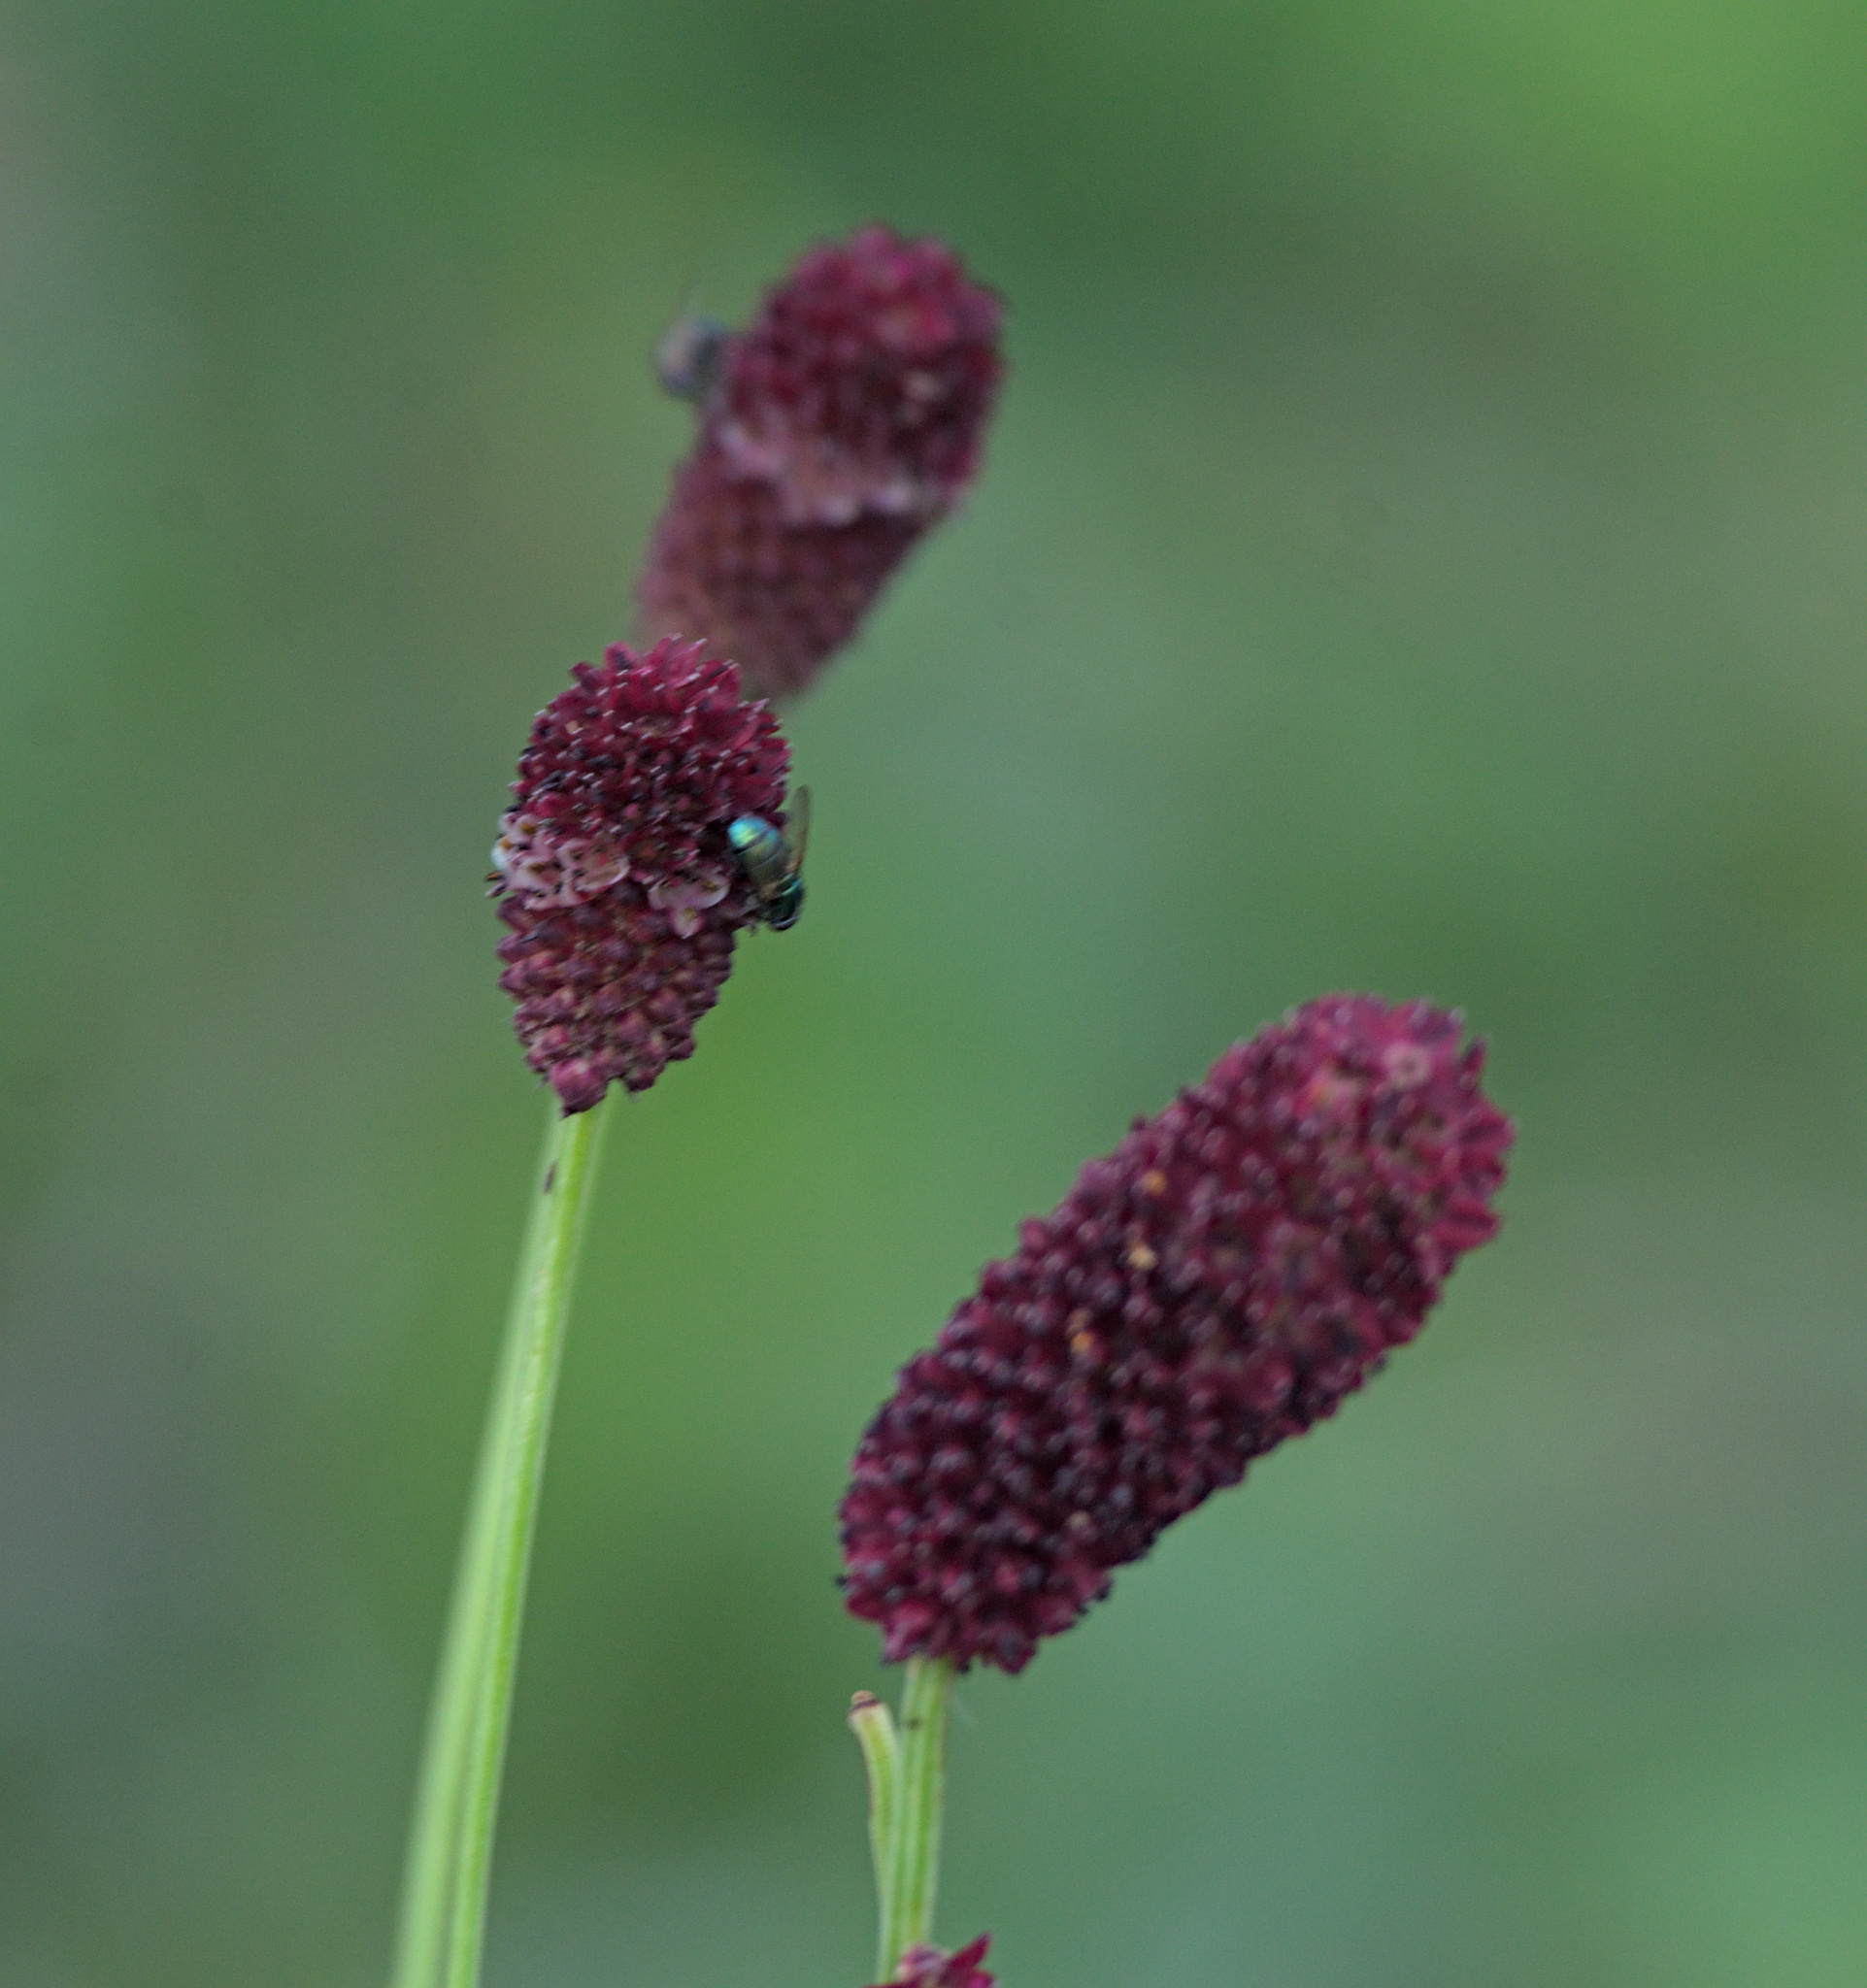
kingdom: Plantae
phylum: Tracheophyta
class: Magnoliopsida
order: Rosales
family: Rosaceae
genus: Sanguisorba
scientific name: Sanguisorba officinalis
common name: Great burnet
